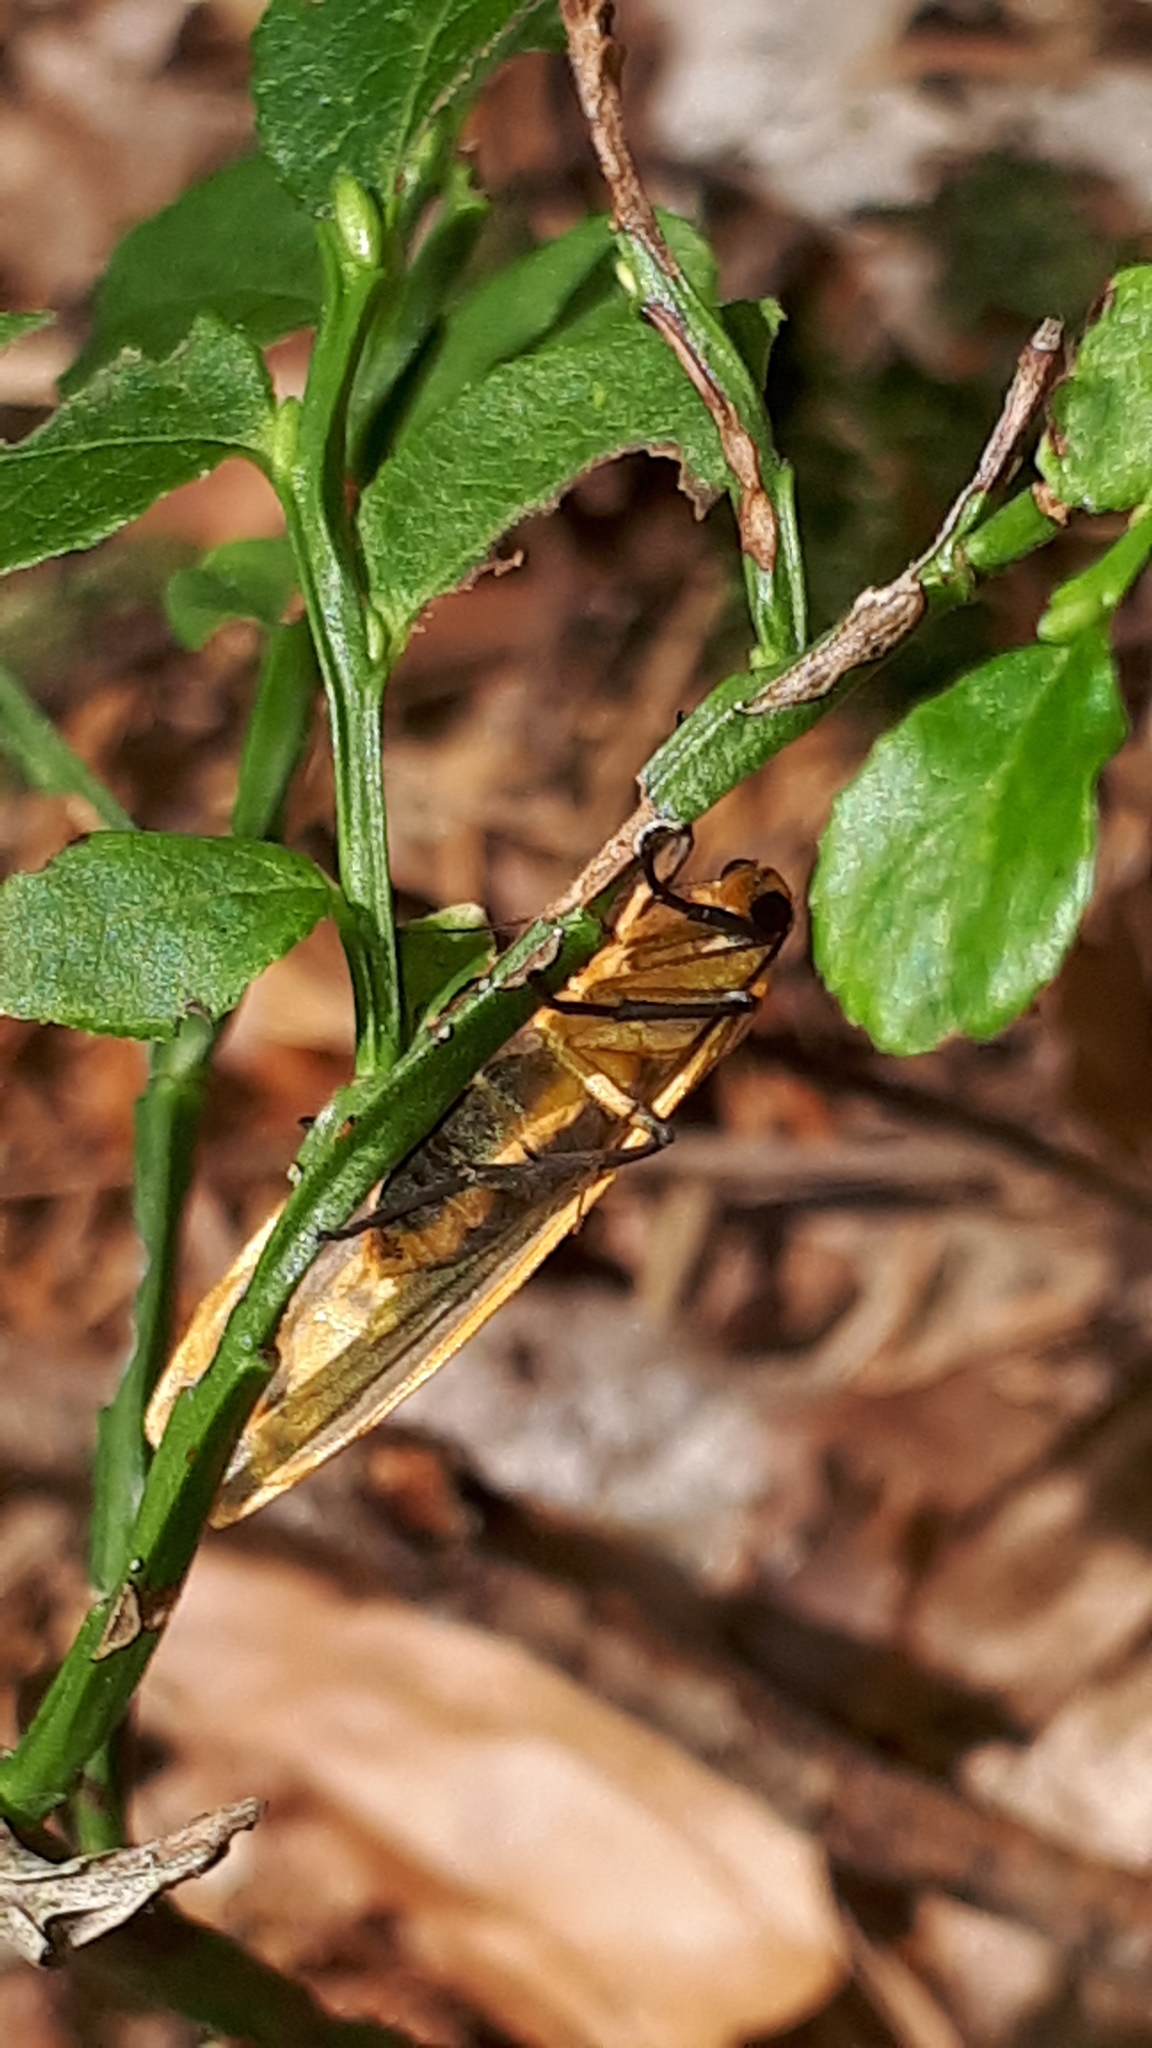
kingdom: Animalia
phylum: Arthropoda
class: Insecta
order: Lepidoptera
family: Erebidae
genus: Katha
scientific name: Katha depressa
